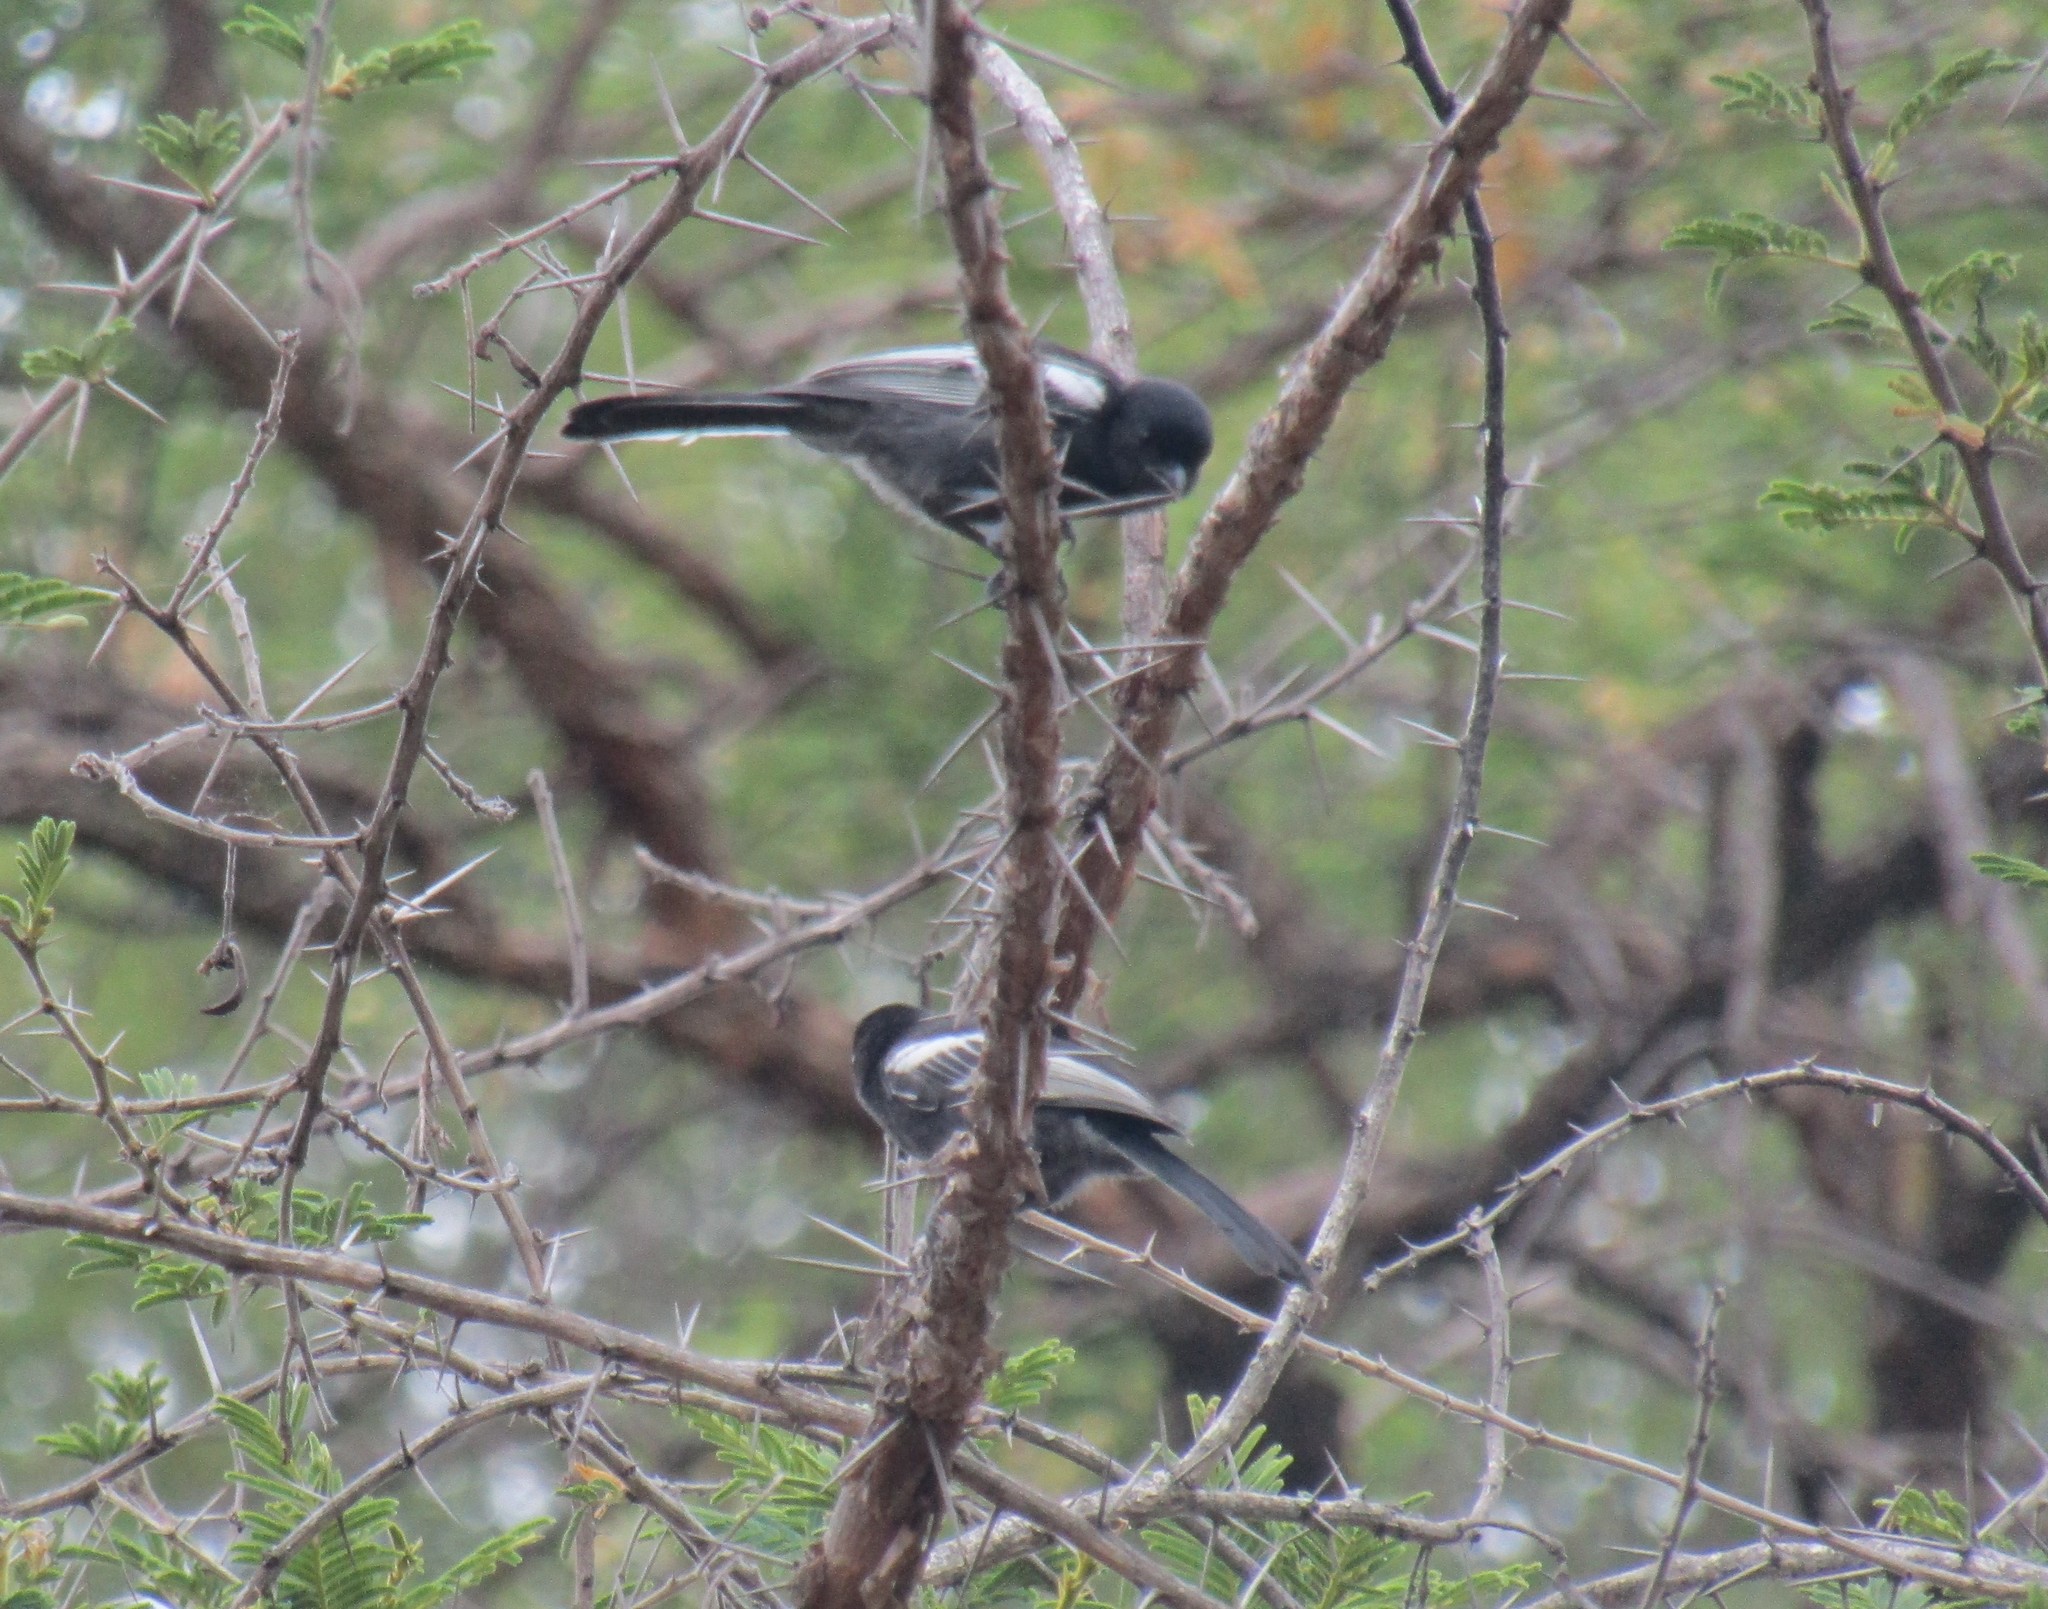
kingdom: Animalia
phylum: Chordata
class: Aves
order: Passeriformes
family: Paridae
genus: Parus
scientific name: Parus niger
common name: Southern black tit
